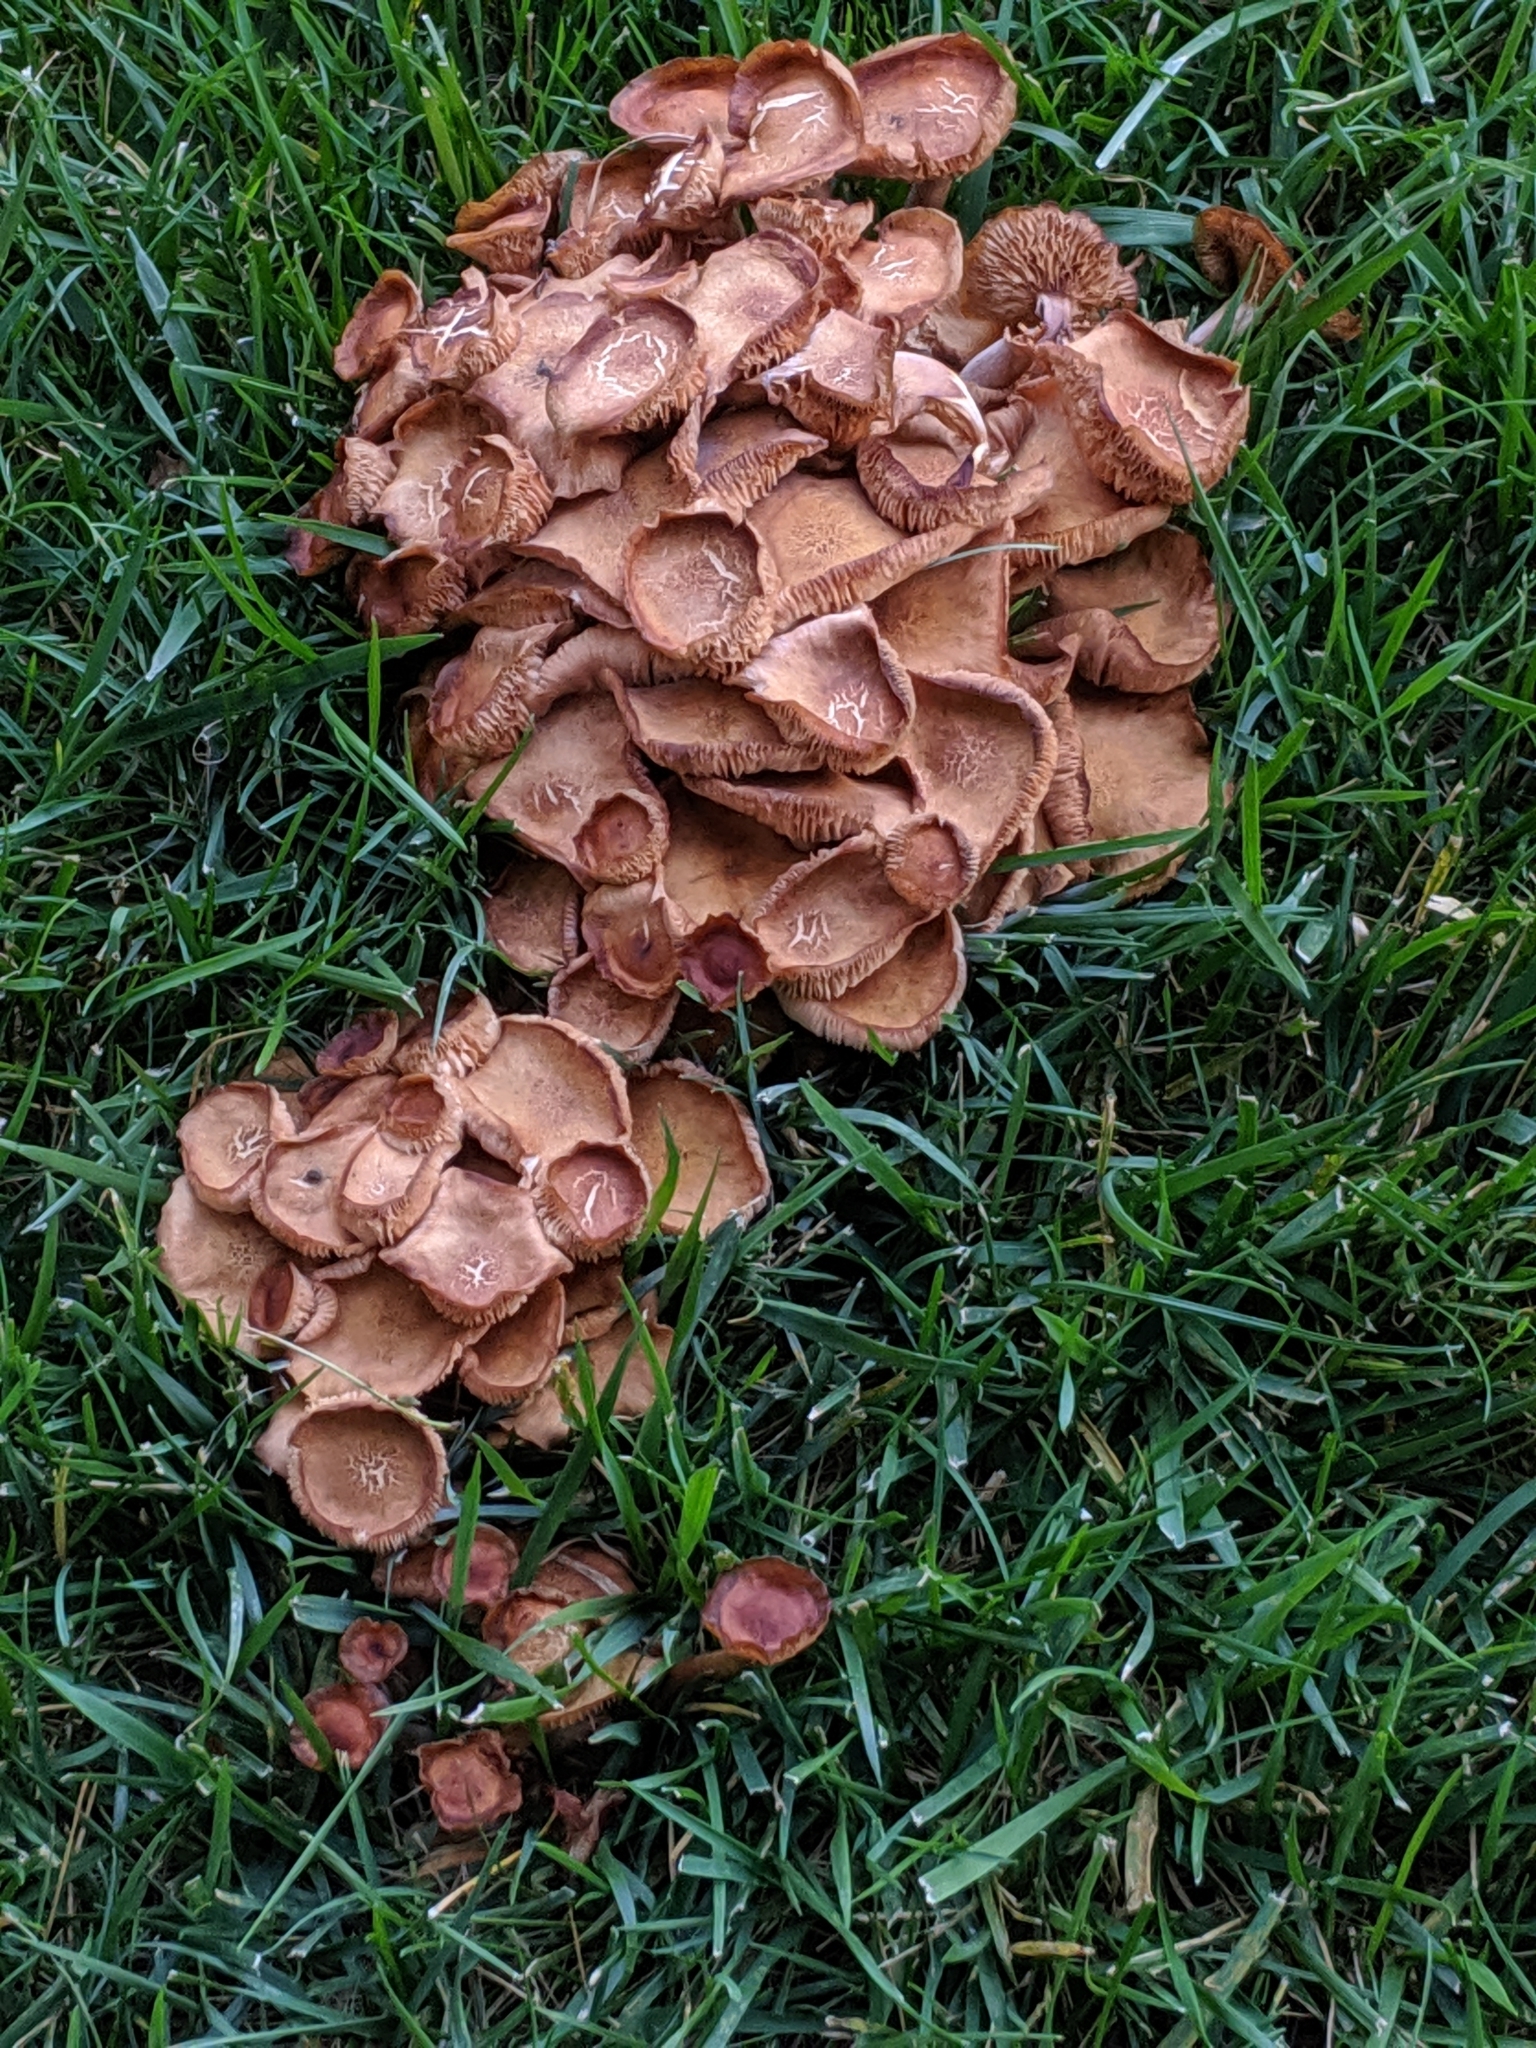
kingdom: Fungi
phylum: Basidiomycota
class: Agaricomycetes
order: Agaricales
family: Physalacriaceae
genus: Desarmillaria
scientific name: Desarmillaria caespitosa
